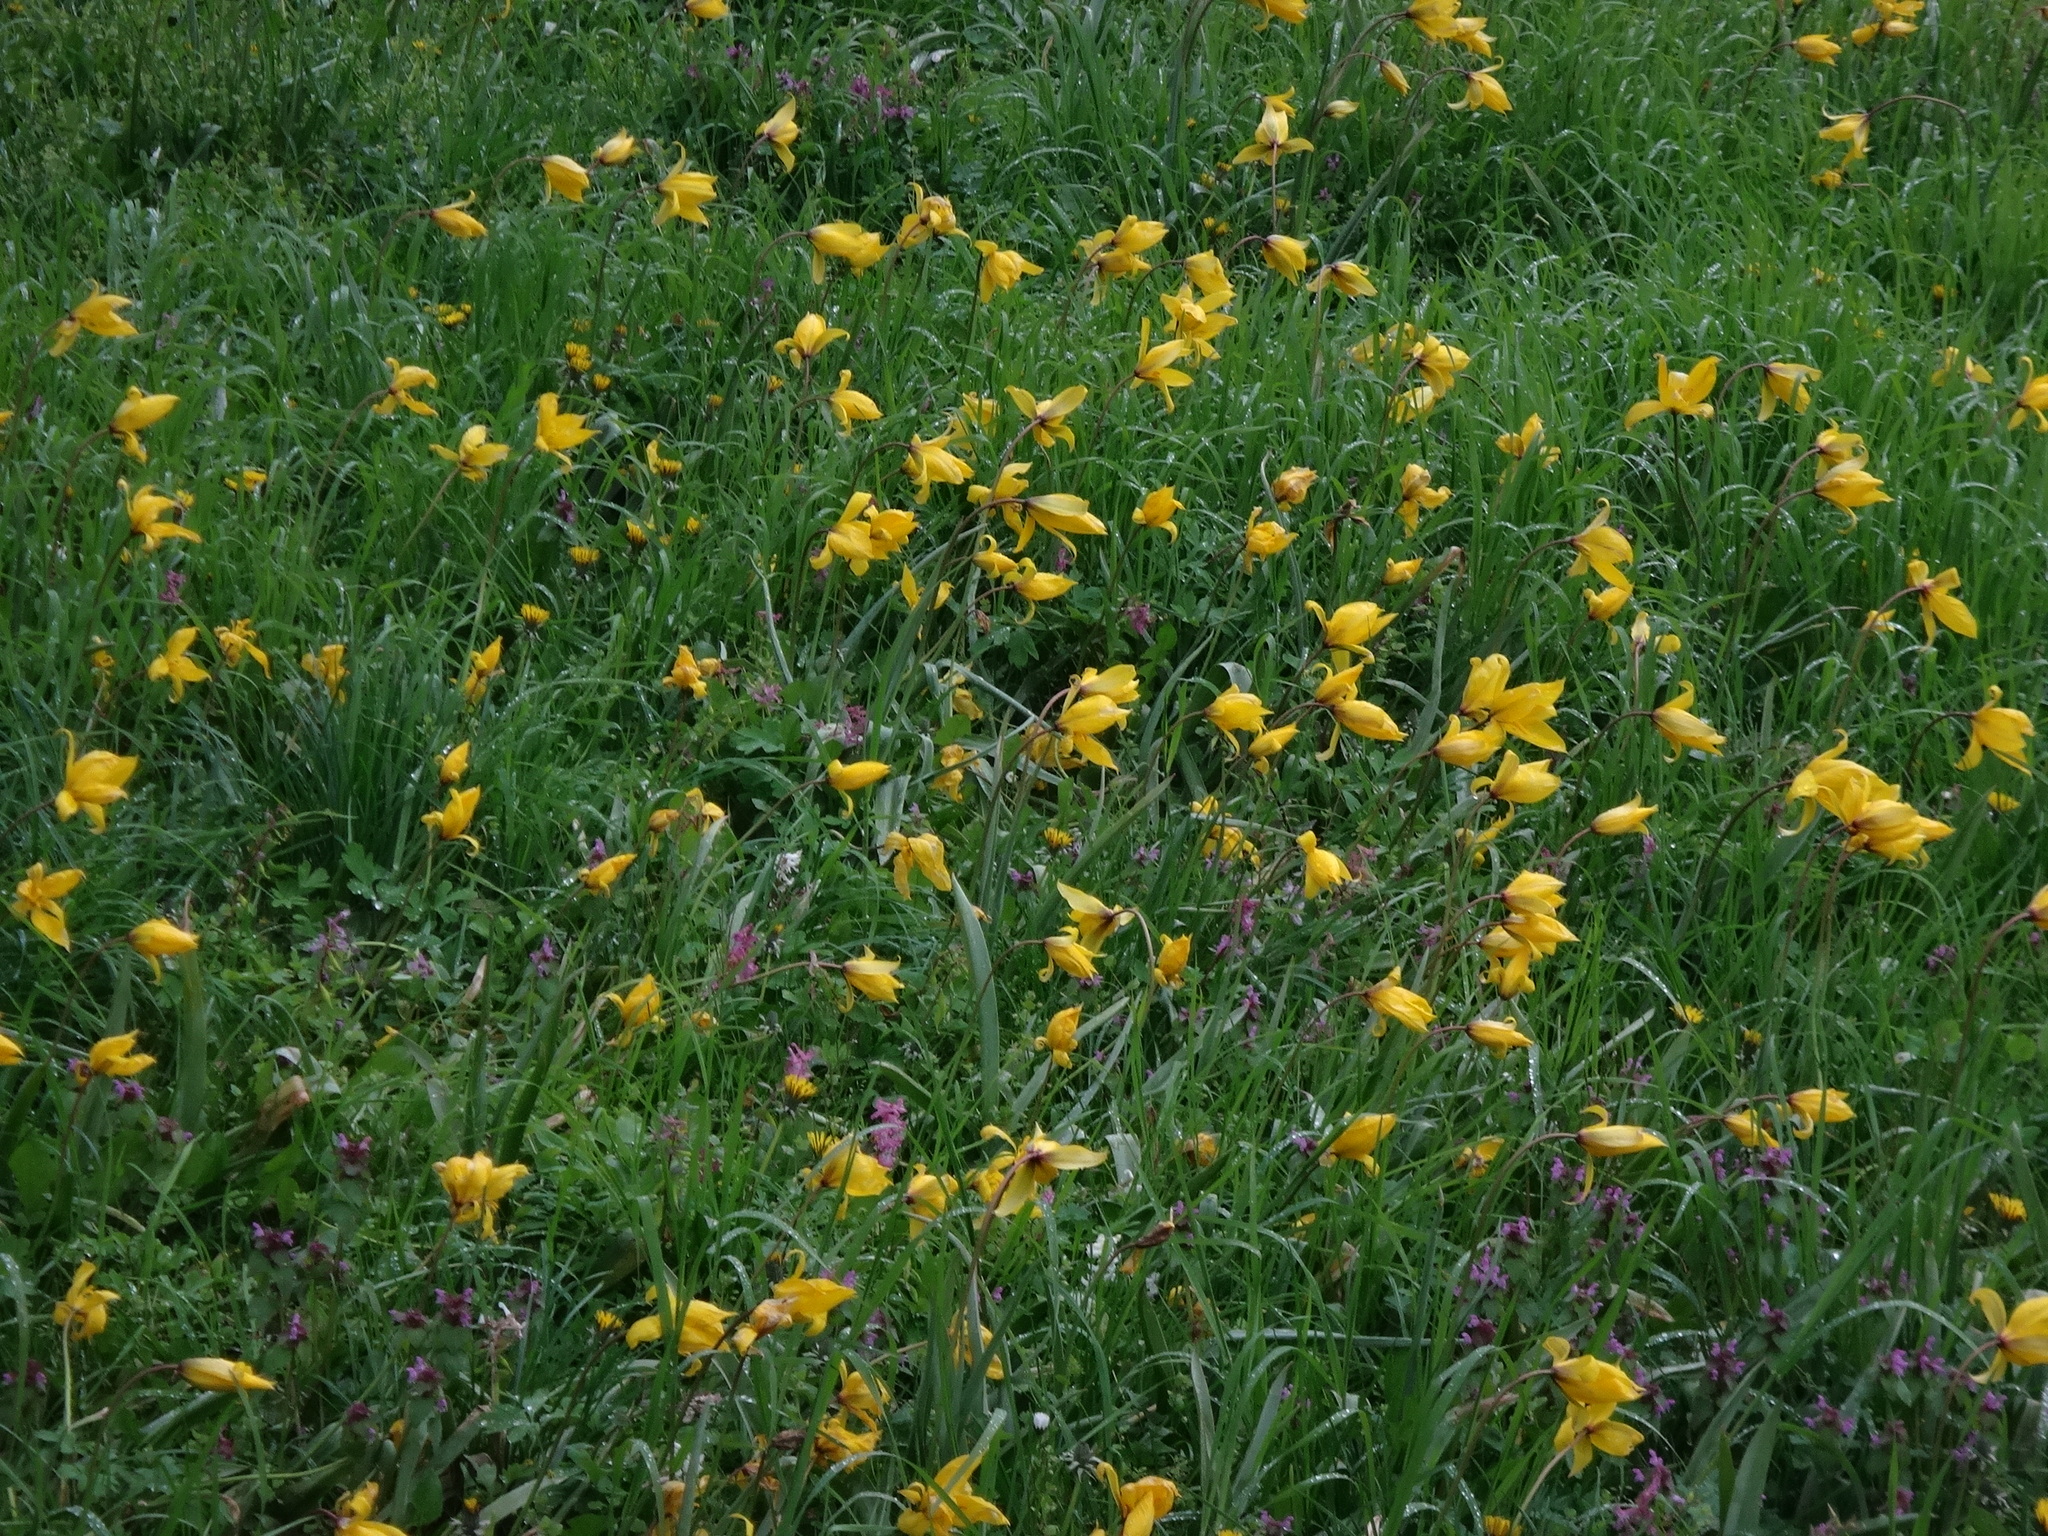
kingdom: Plantae
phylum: Tracheophyta
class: Liliopsida
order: Liliales
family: Liliaceae
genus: Tulipa
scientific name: Tulipa sylvestris
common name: Wild tulip
